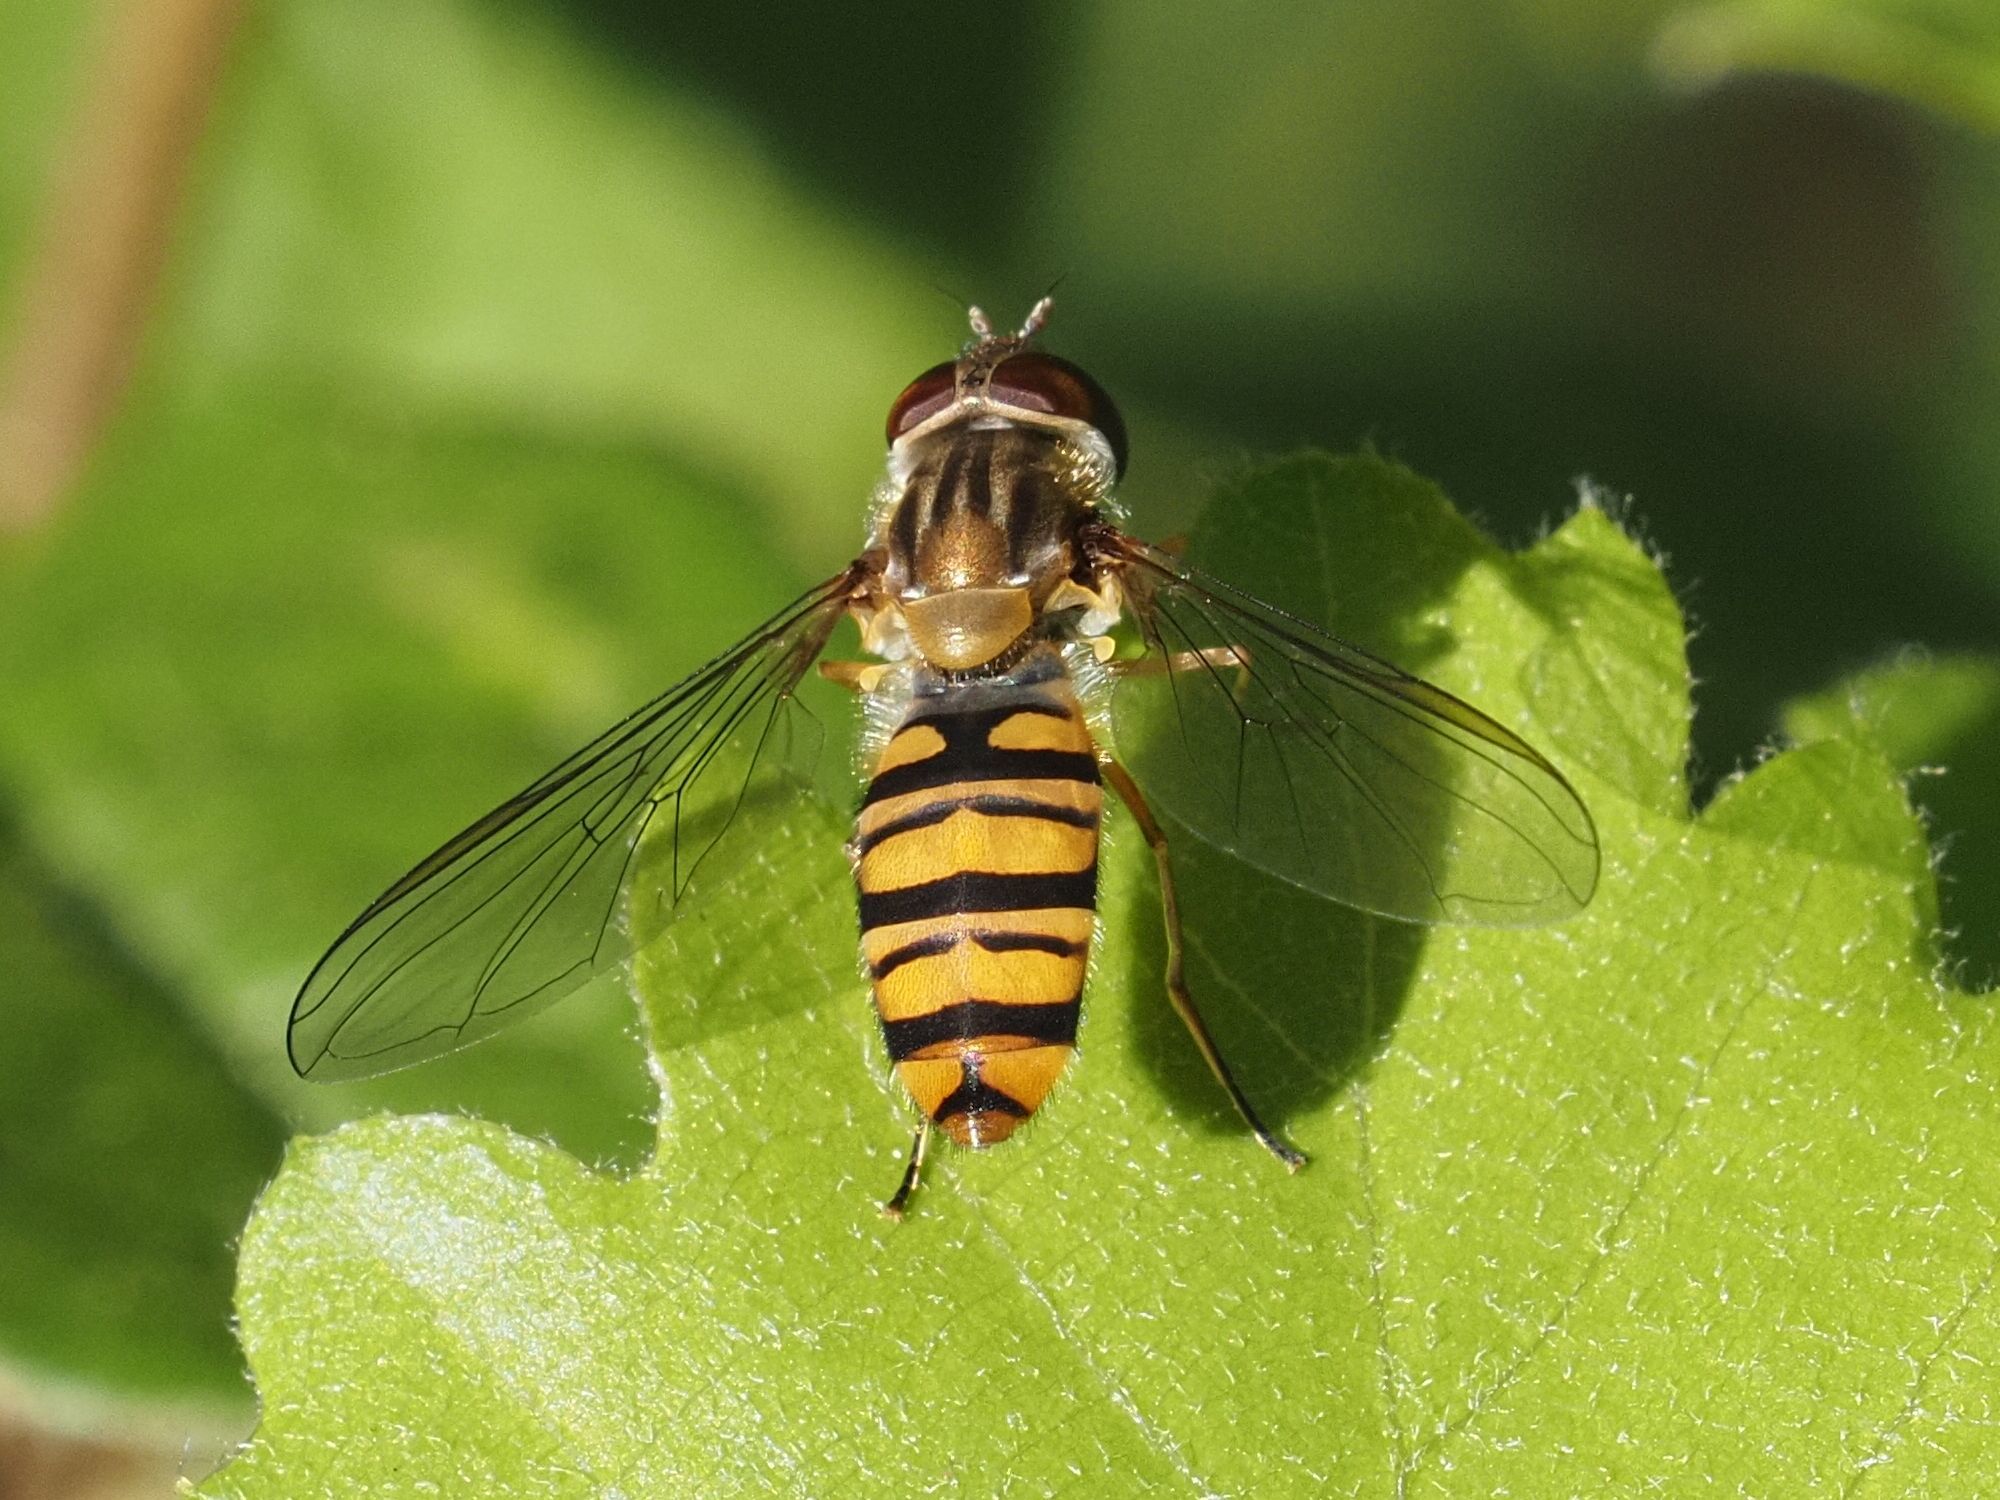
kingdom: Animalia
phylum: Arthropoda
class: Insecta
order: Diptera
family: Syrphidae
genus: Episyrphus
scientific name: Episyrphus balteatus
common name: Marmalade hoverfly
